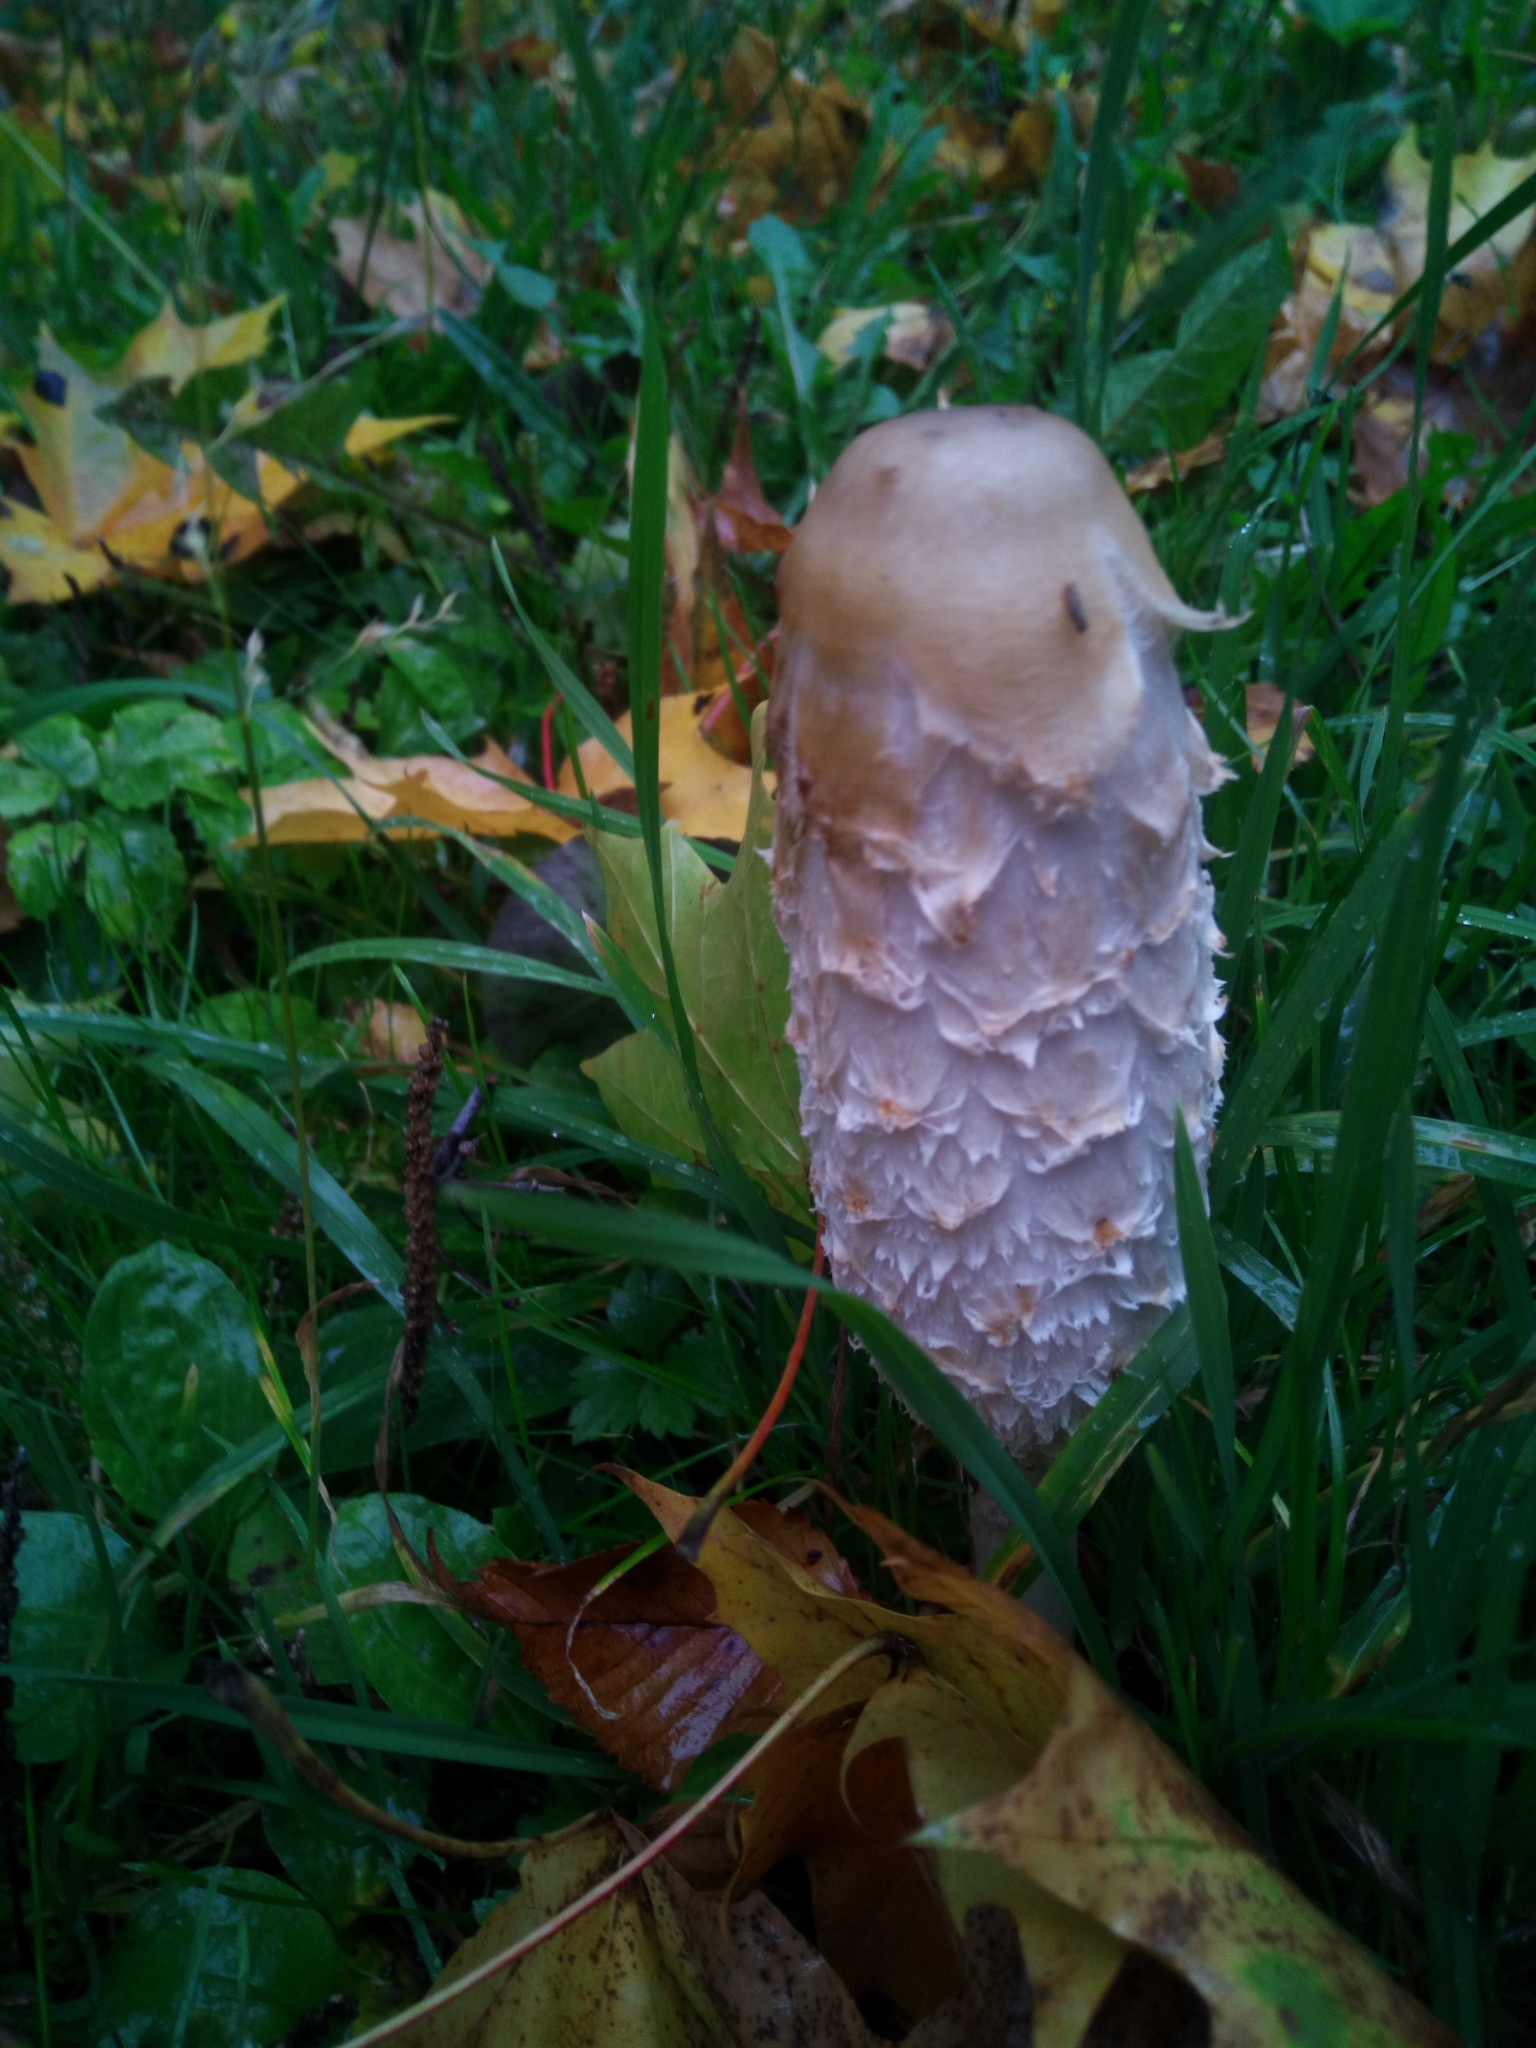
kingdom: Fungi
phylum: Basidiomycota
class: Agaricomycetes
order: Agaricales
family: Agaricaceae
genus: Coprinus
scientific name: Coprinus comatus
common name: Lawyer's wig
